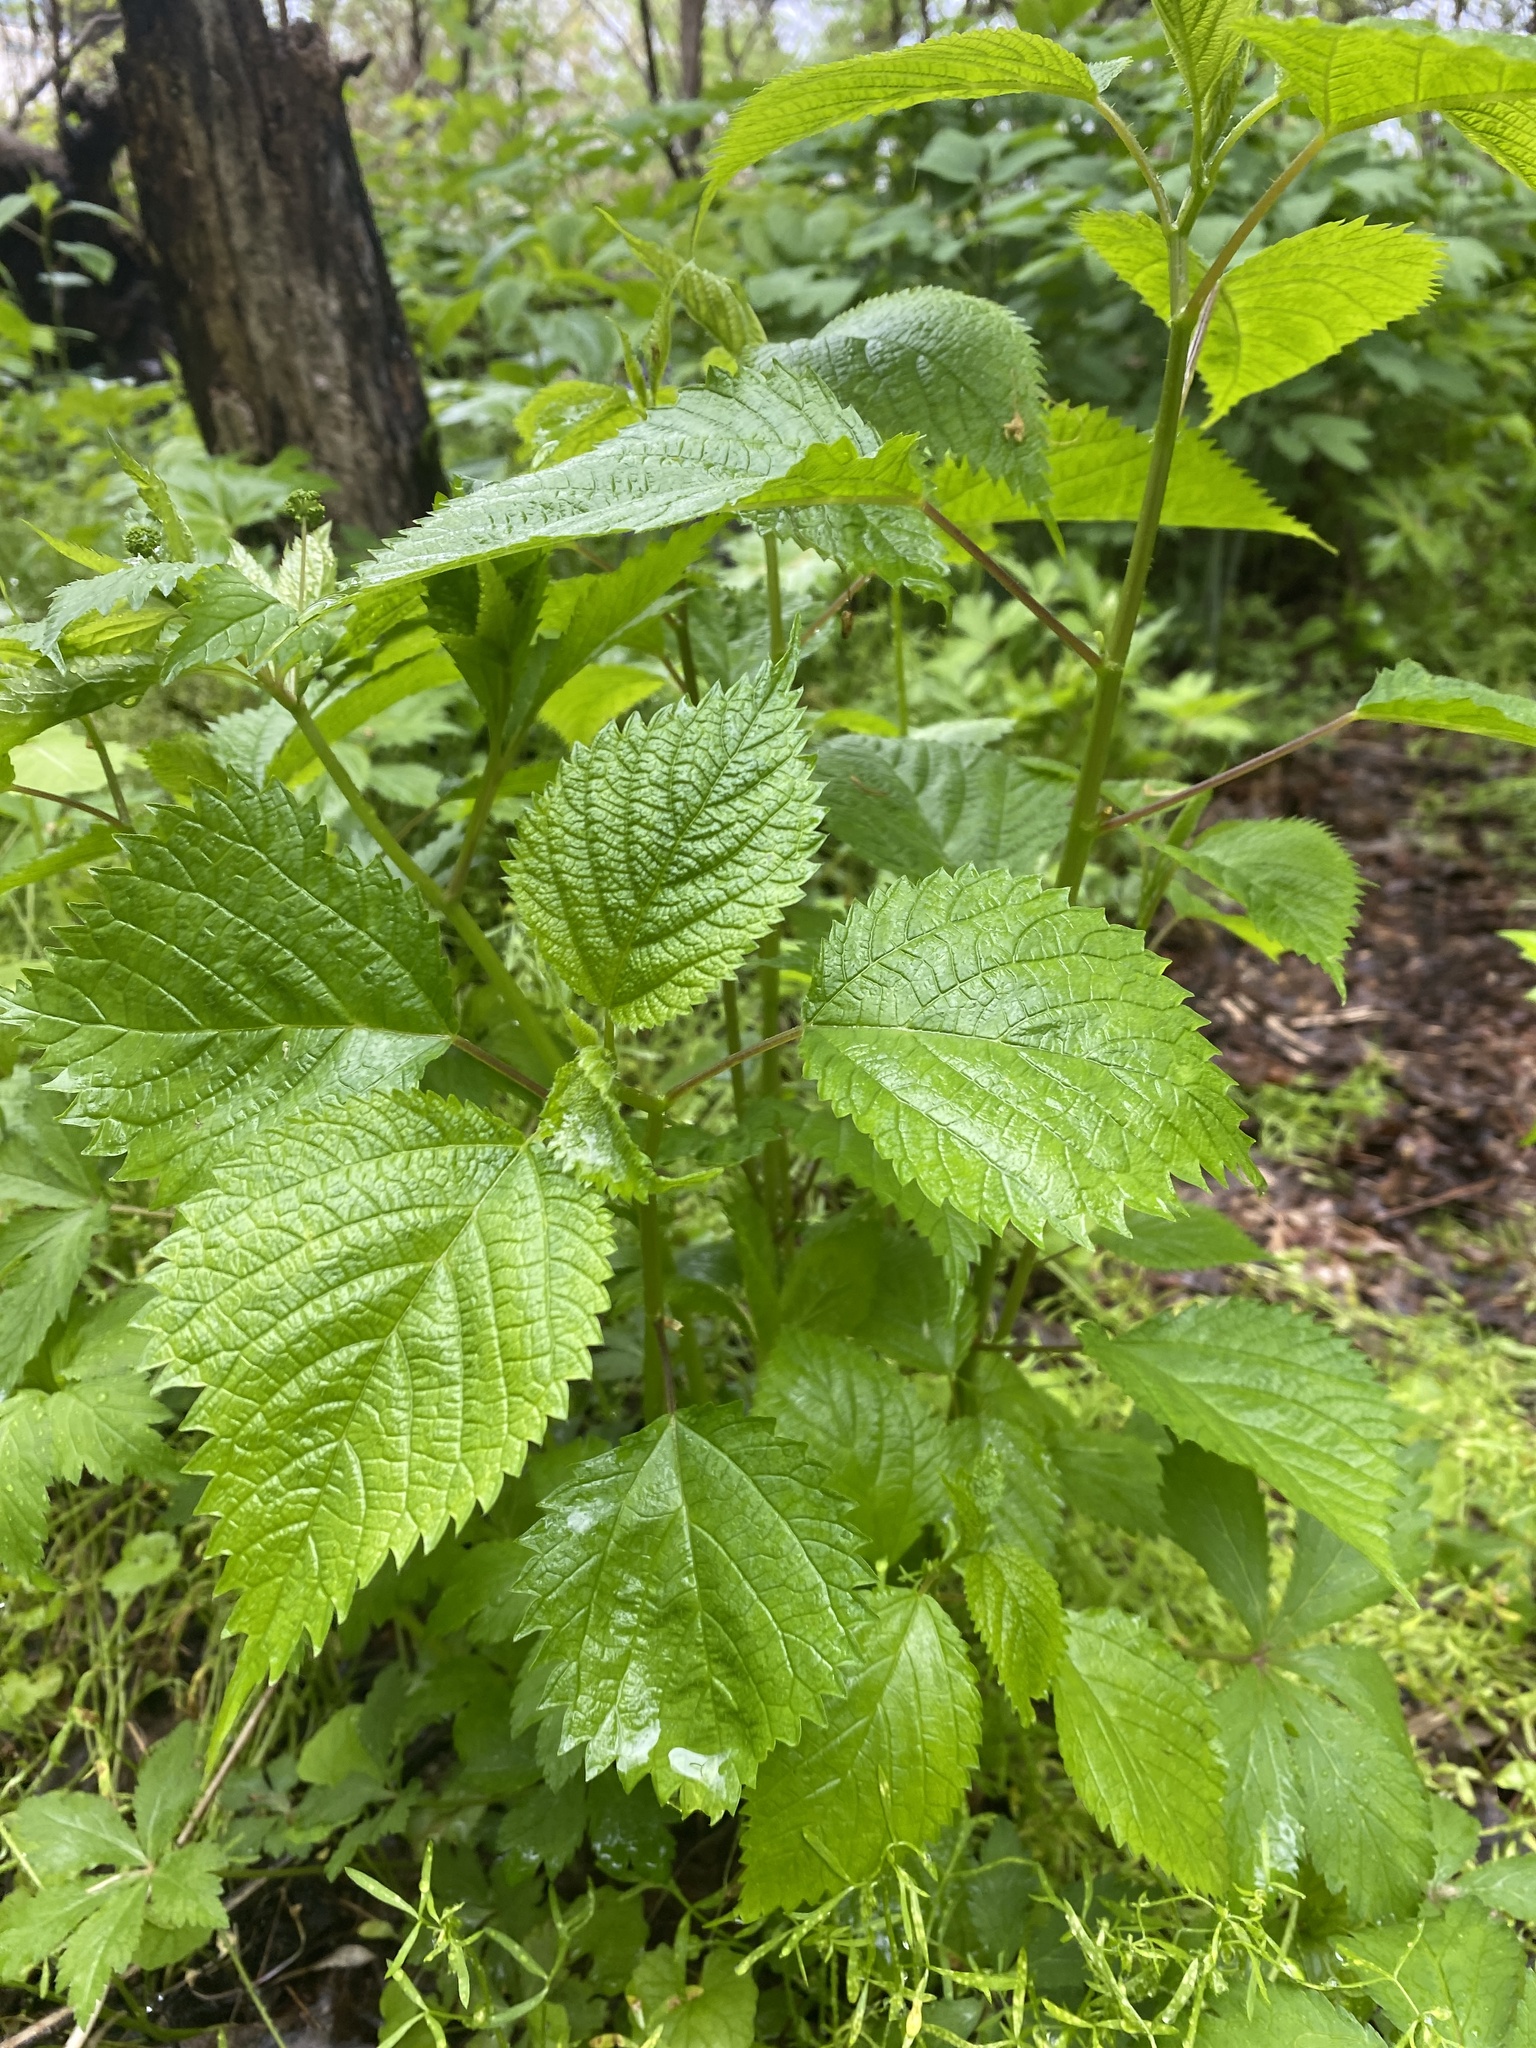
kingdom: Plantae
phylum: Tracheophyta
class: Magnoliopsida
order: Rosales
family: Urticaceae
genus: Laportea
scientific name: Laportea canadensis
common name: Canada nettle
